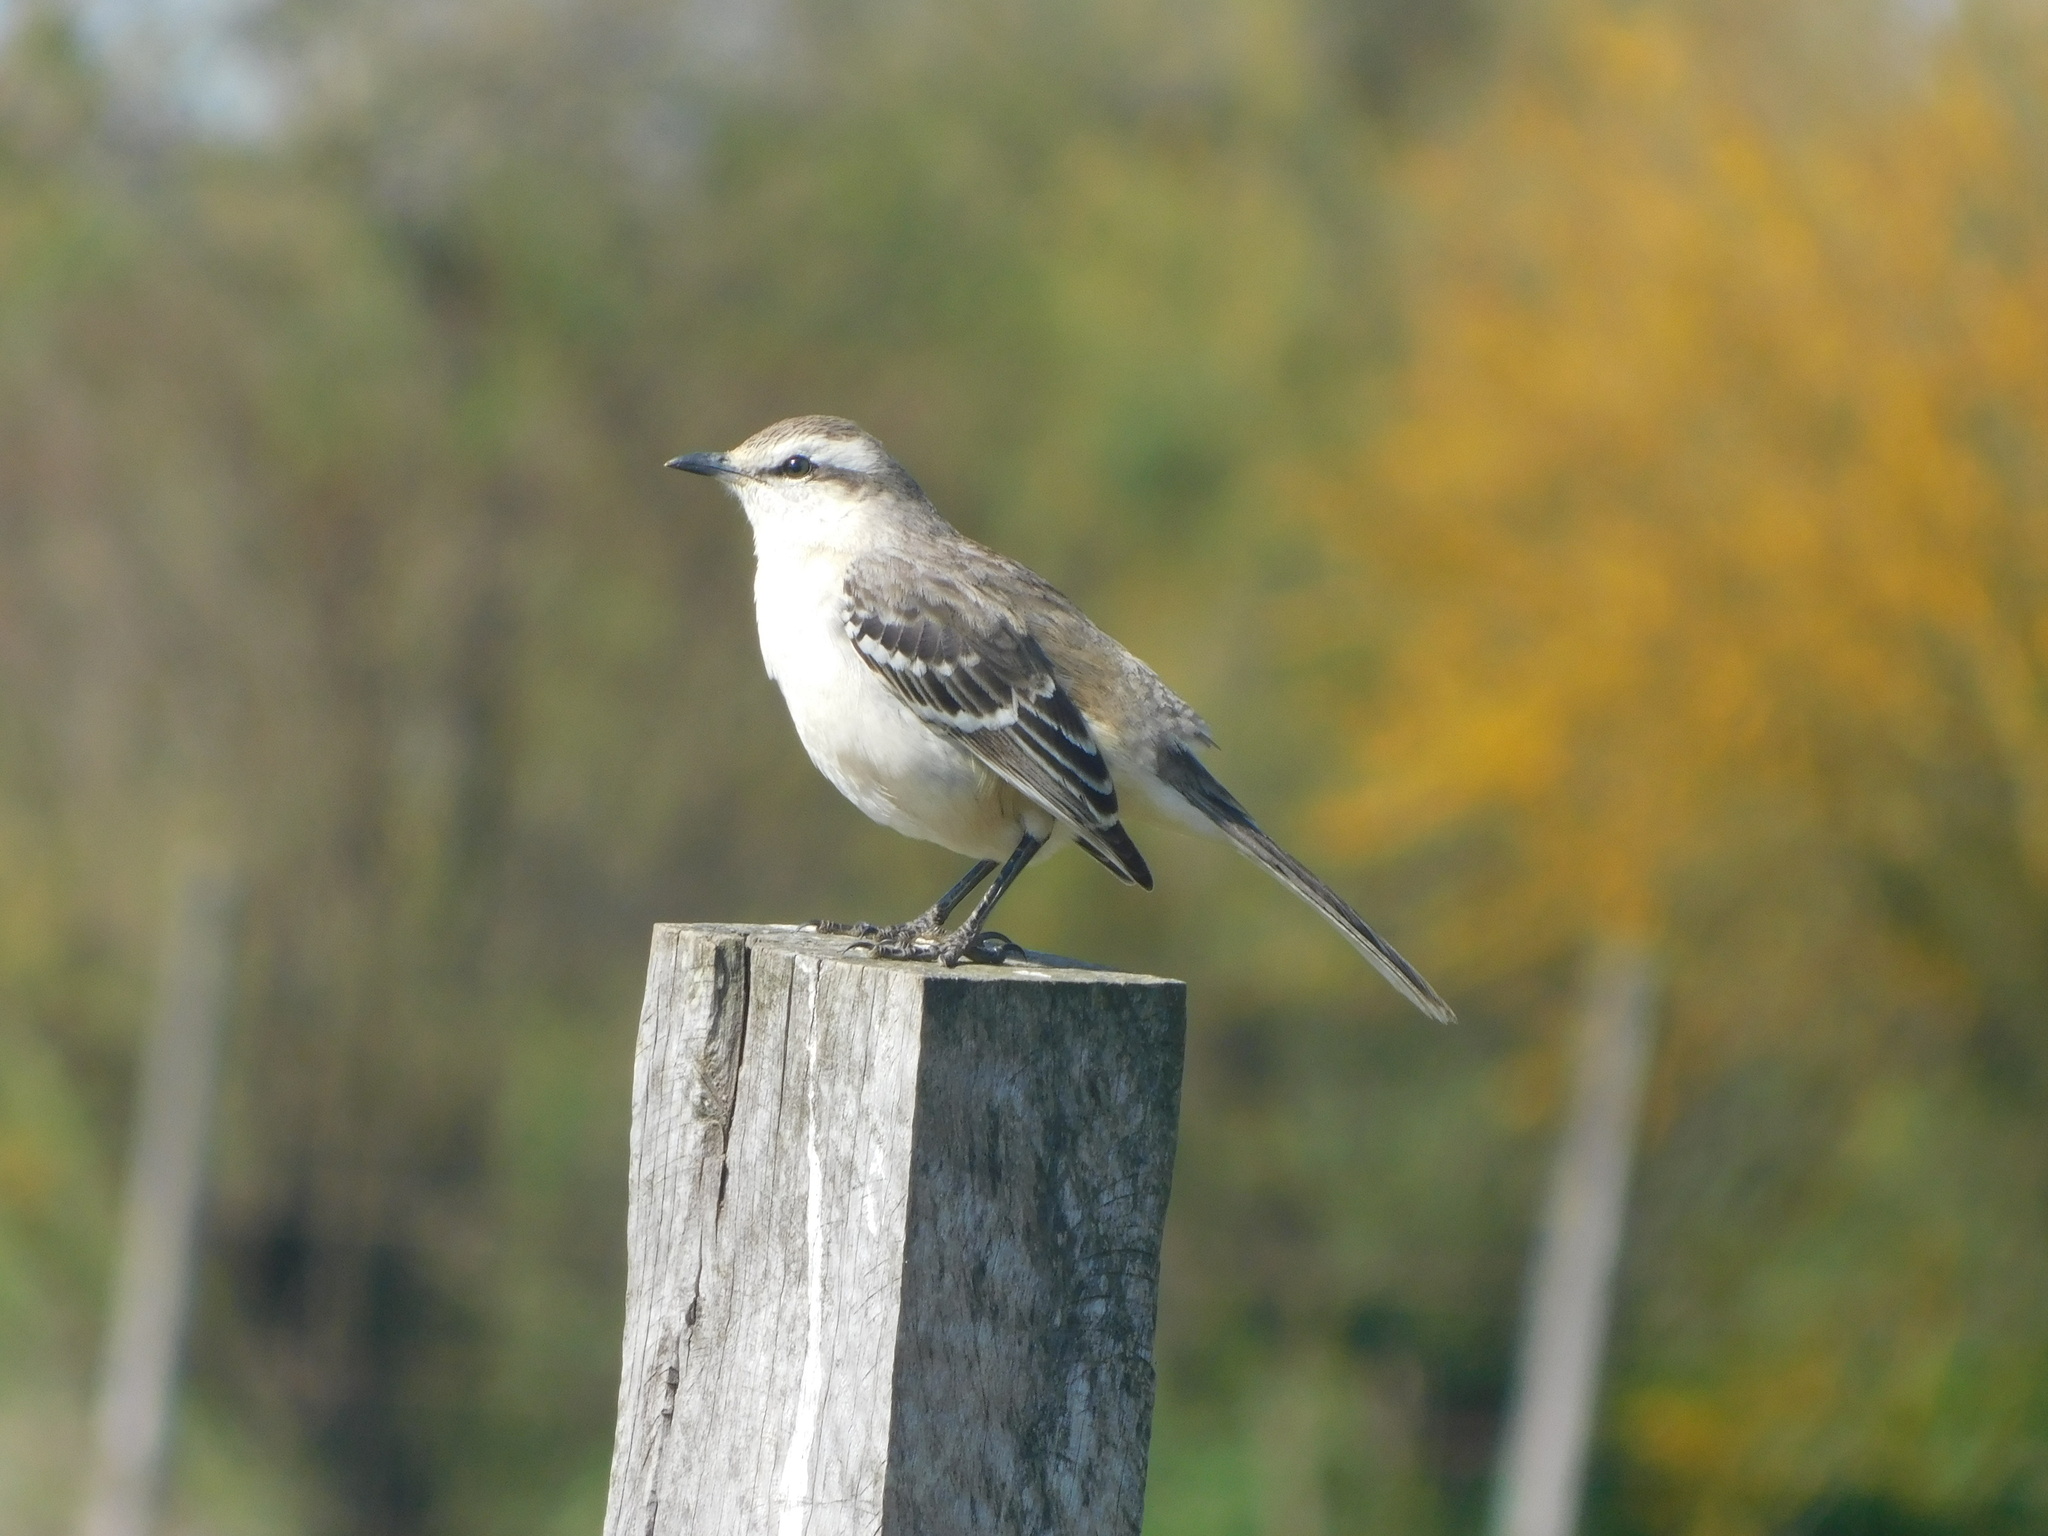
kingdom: Animalia
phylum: Chordata
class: Aves
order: Passeriformes
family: Mimidae
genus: Mimus
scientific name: Mimus saturninus
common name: Chalk-browed mockingbird
